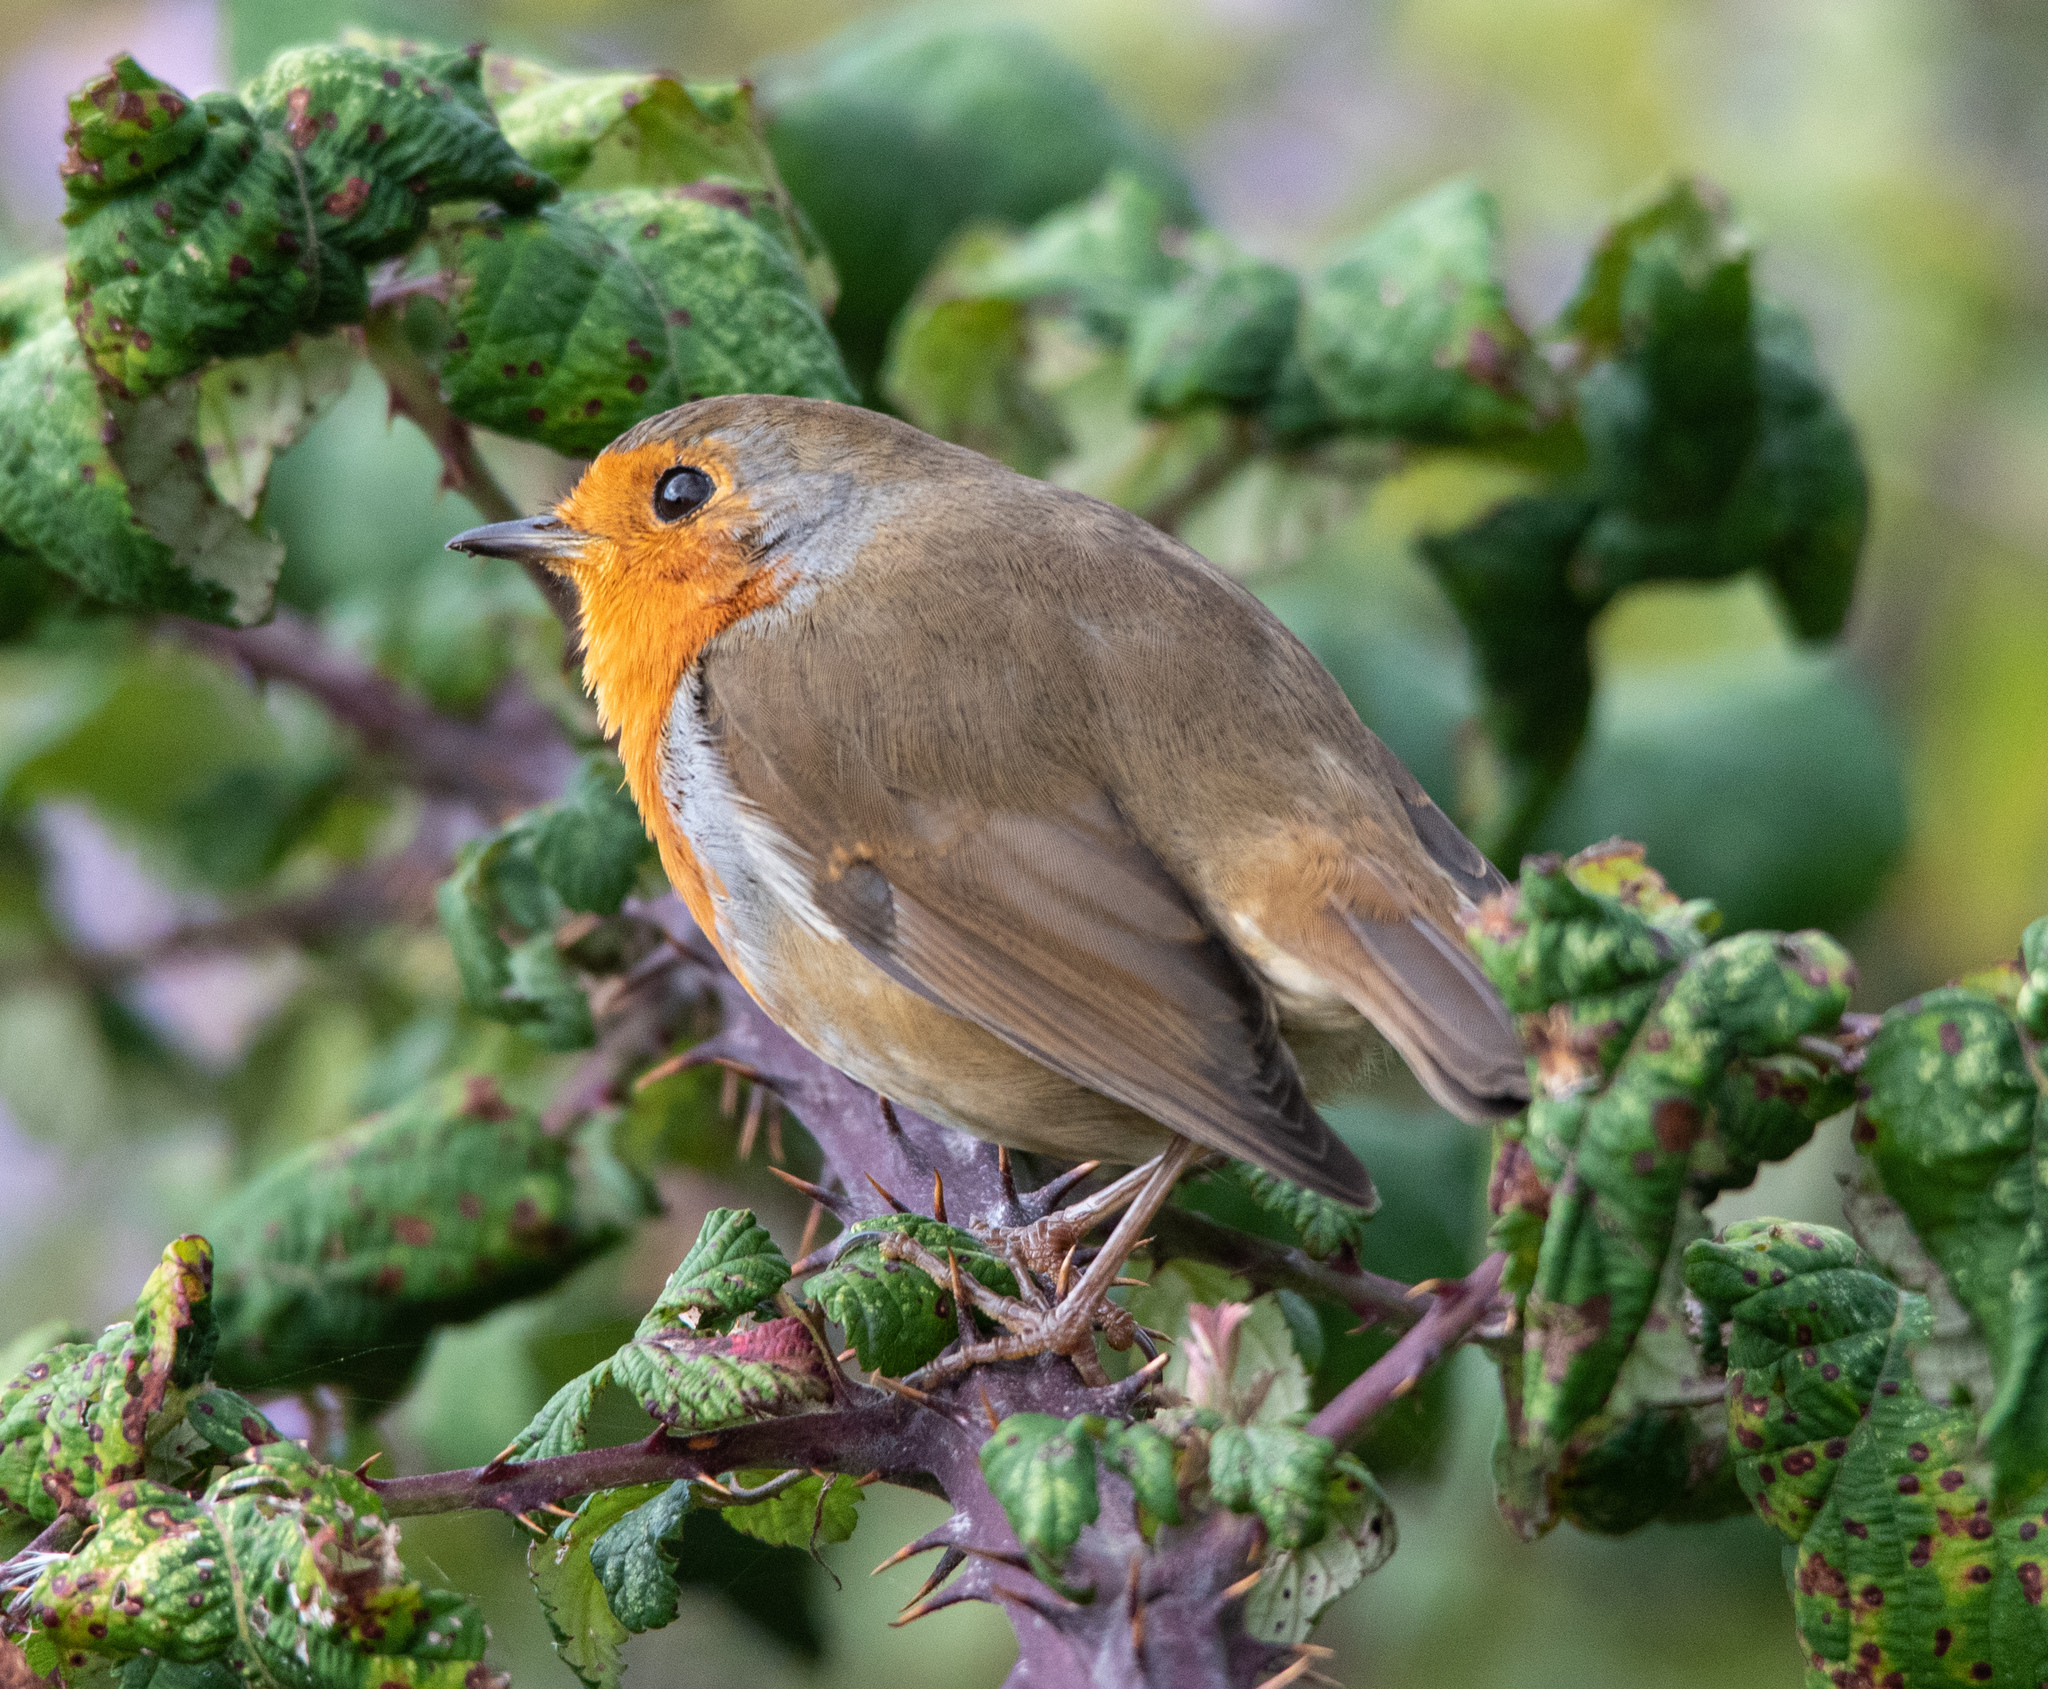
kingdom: Animalia
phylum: Chordata
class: Aves
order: Passeriformes
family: Muscicapidae
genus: Erithacus
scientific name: Erithacus rubecula
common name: European robin
